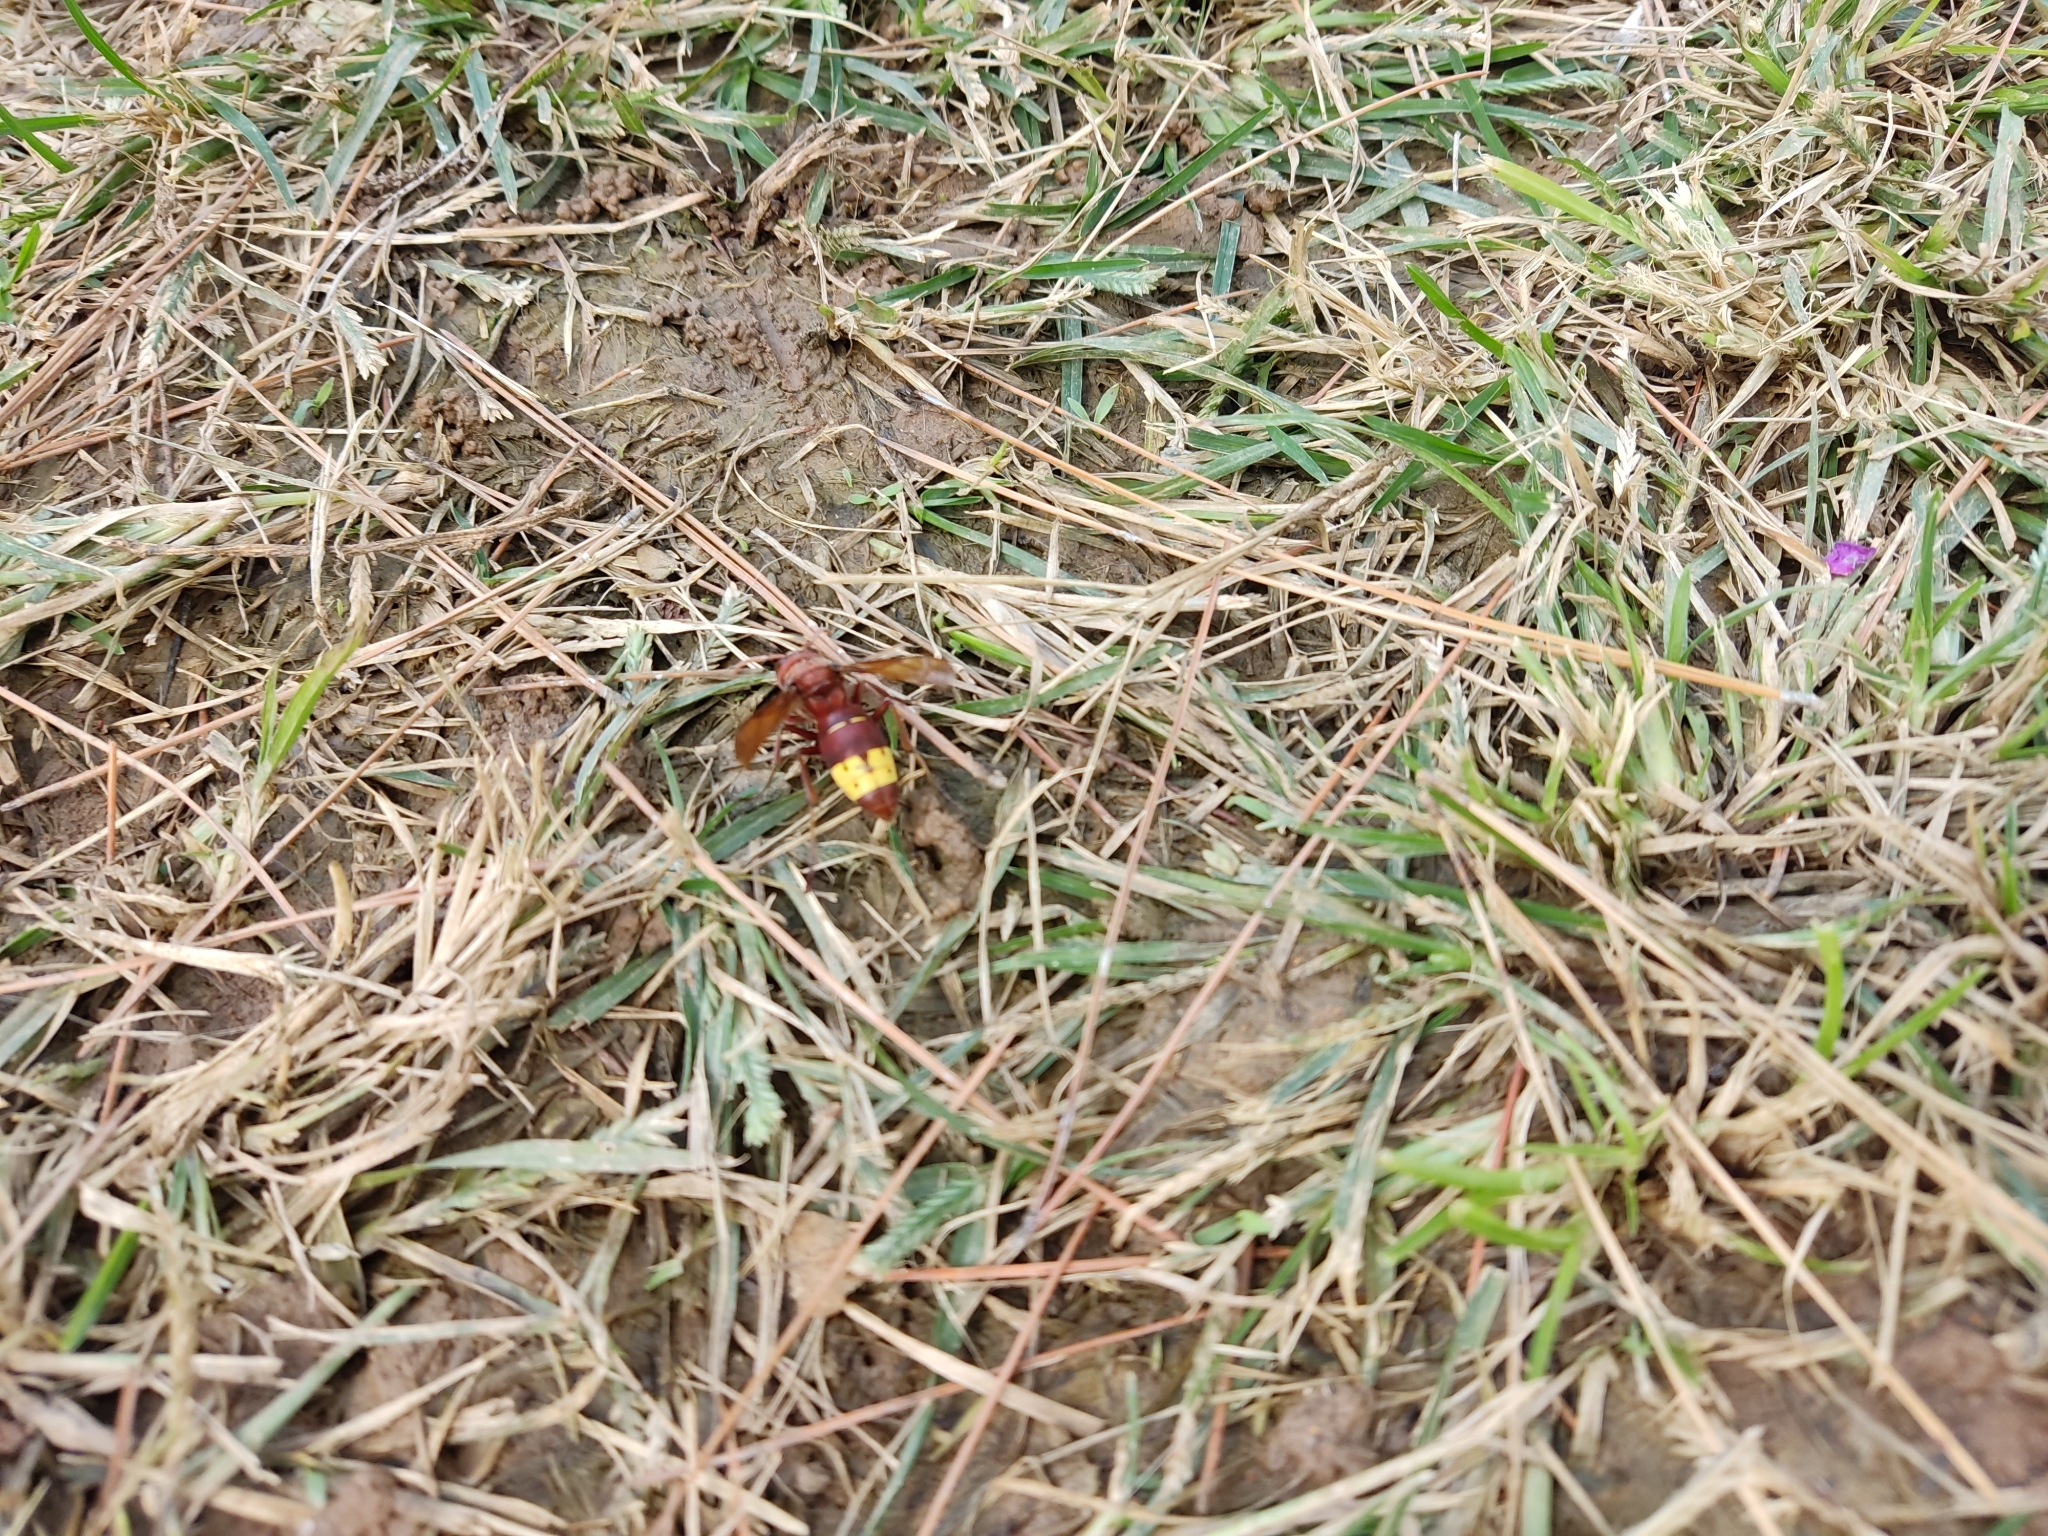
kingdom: Animalia
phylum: Arthropoda
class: Insecta
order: Hymenoptera
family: Vespidae
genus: Vespa
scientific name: Vespa orientalis
